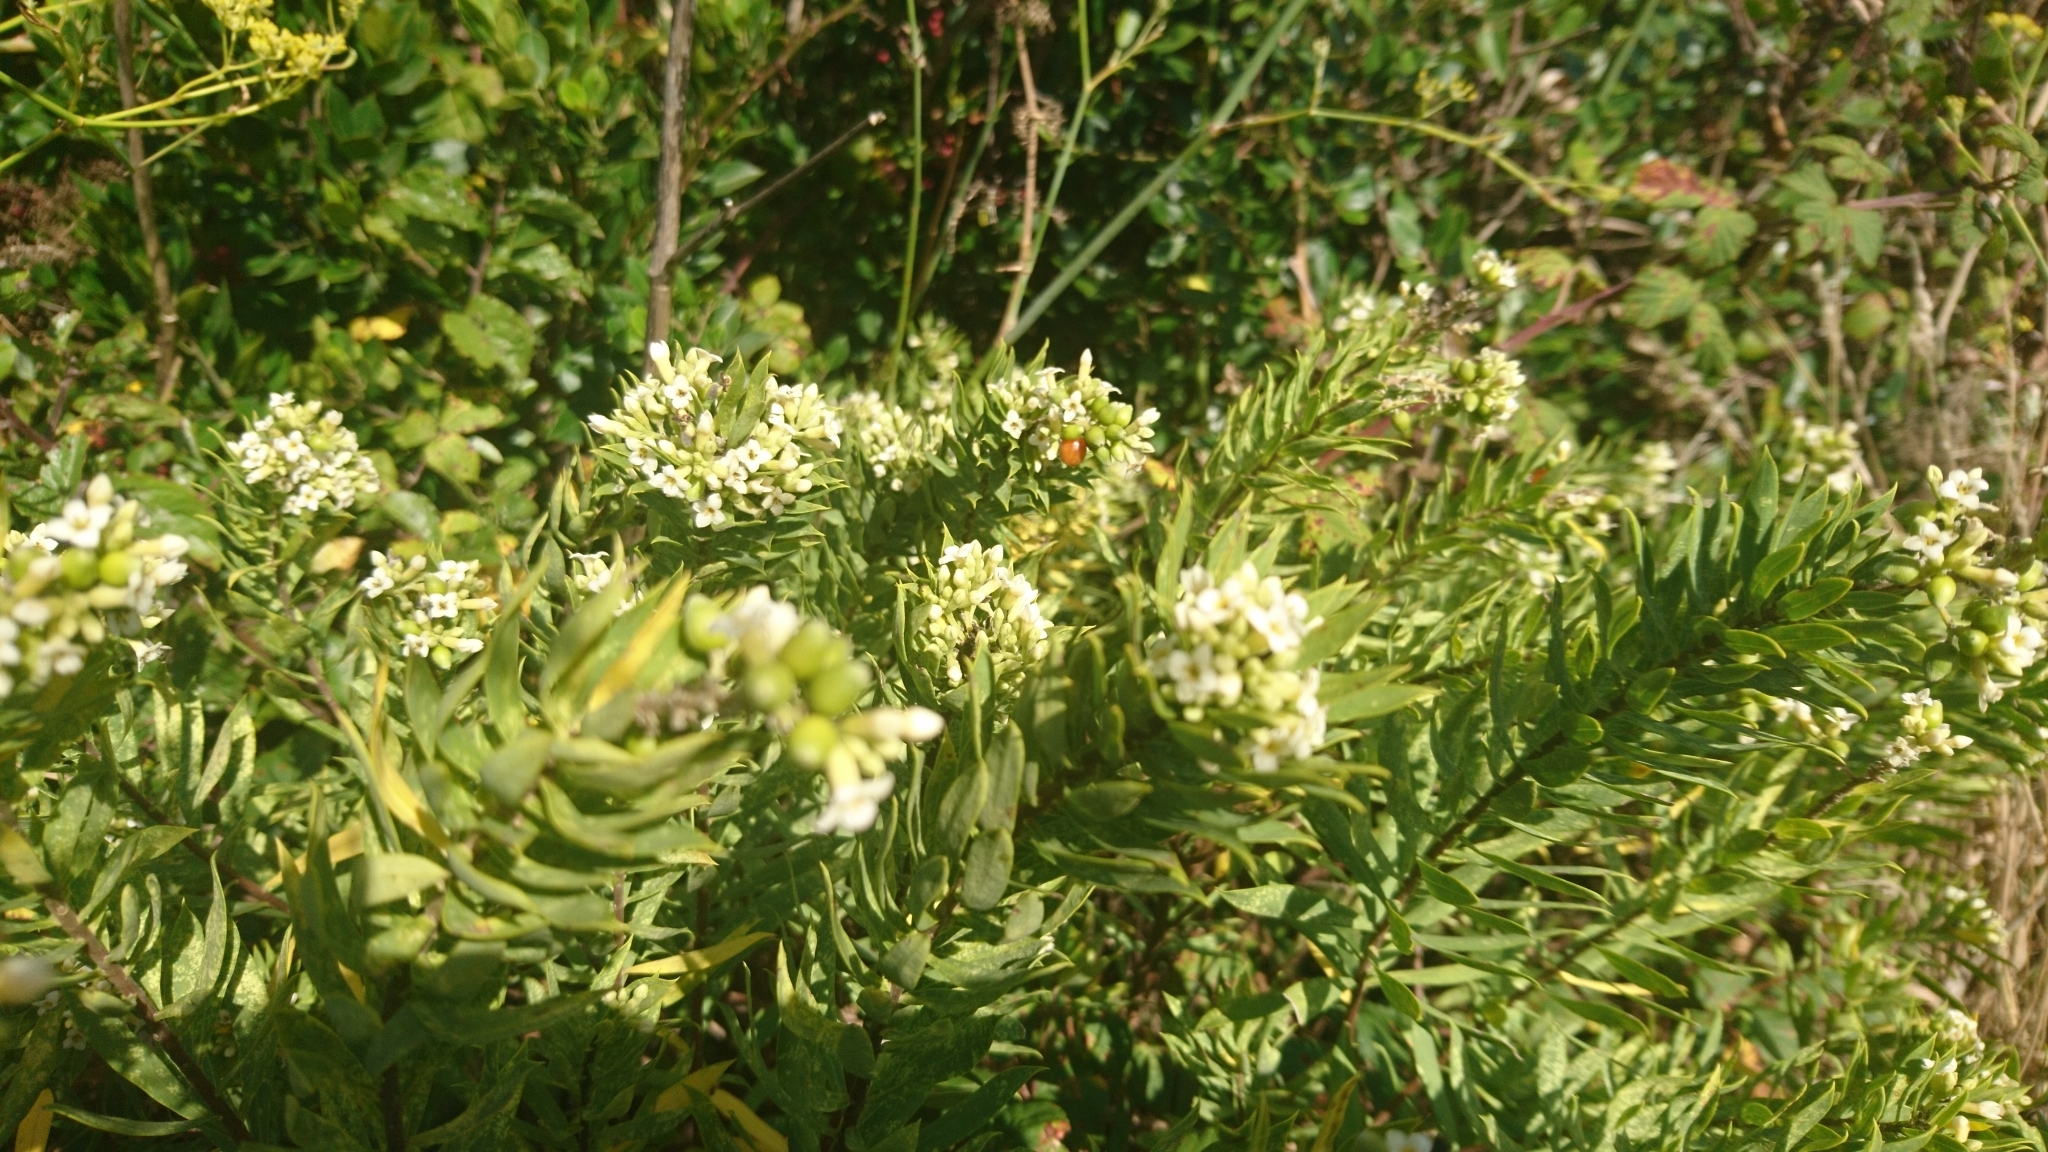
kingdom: Plantae
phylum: Tracheophyta
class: Magnoliopsida
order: Malvales
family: Thymelaeaceae
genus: Daphne
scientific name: Daphne gnidium
